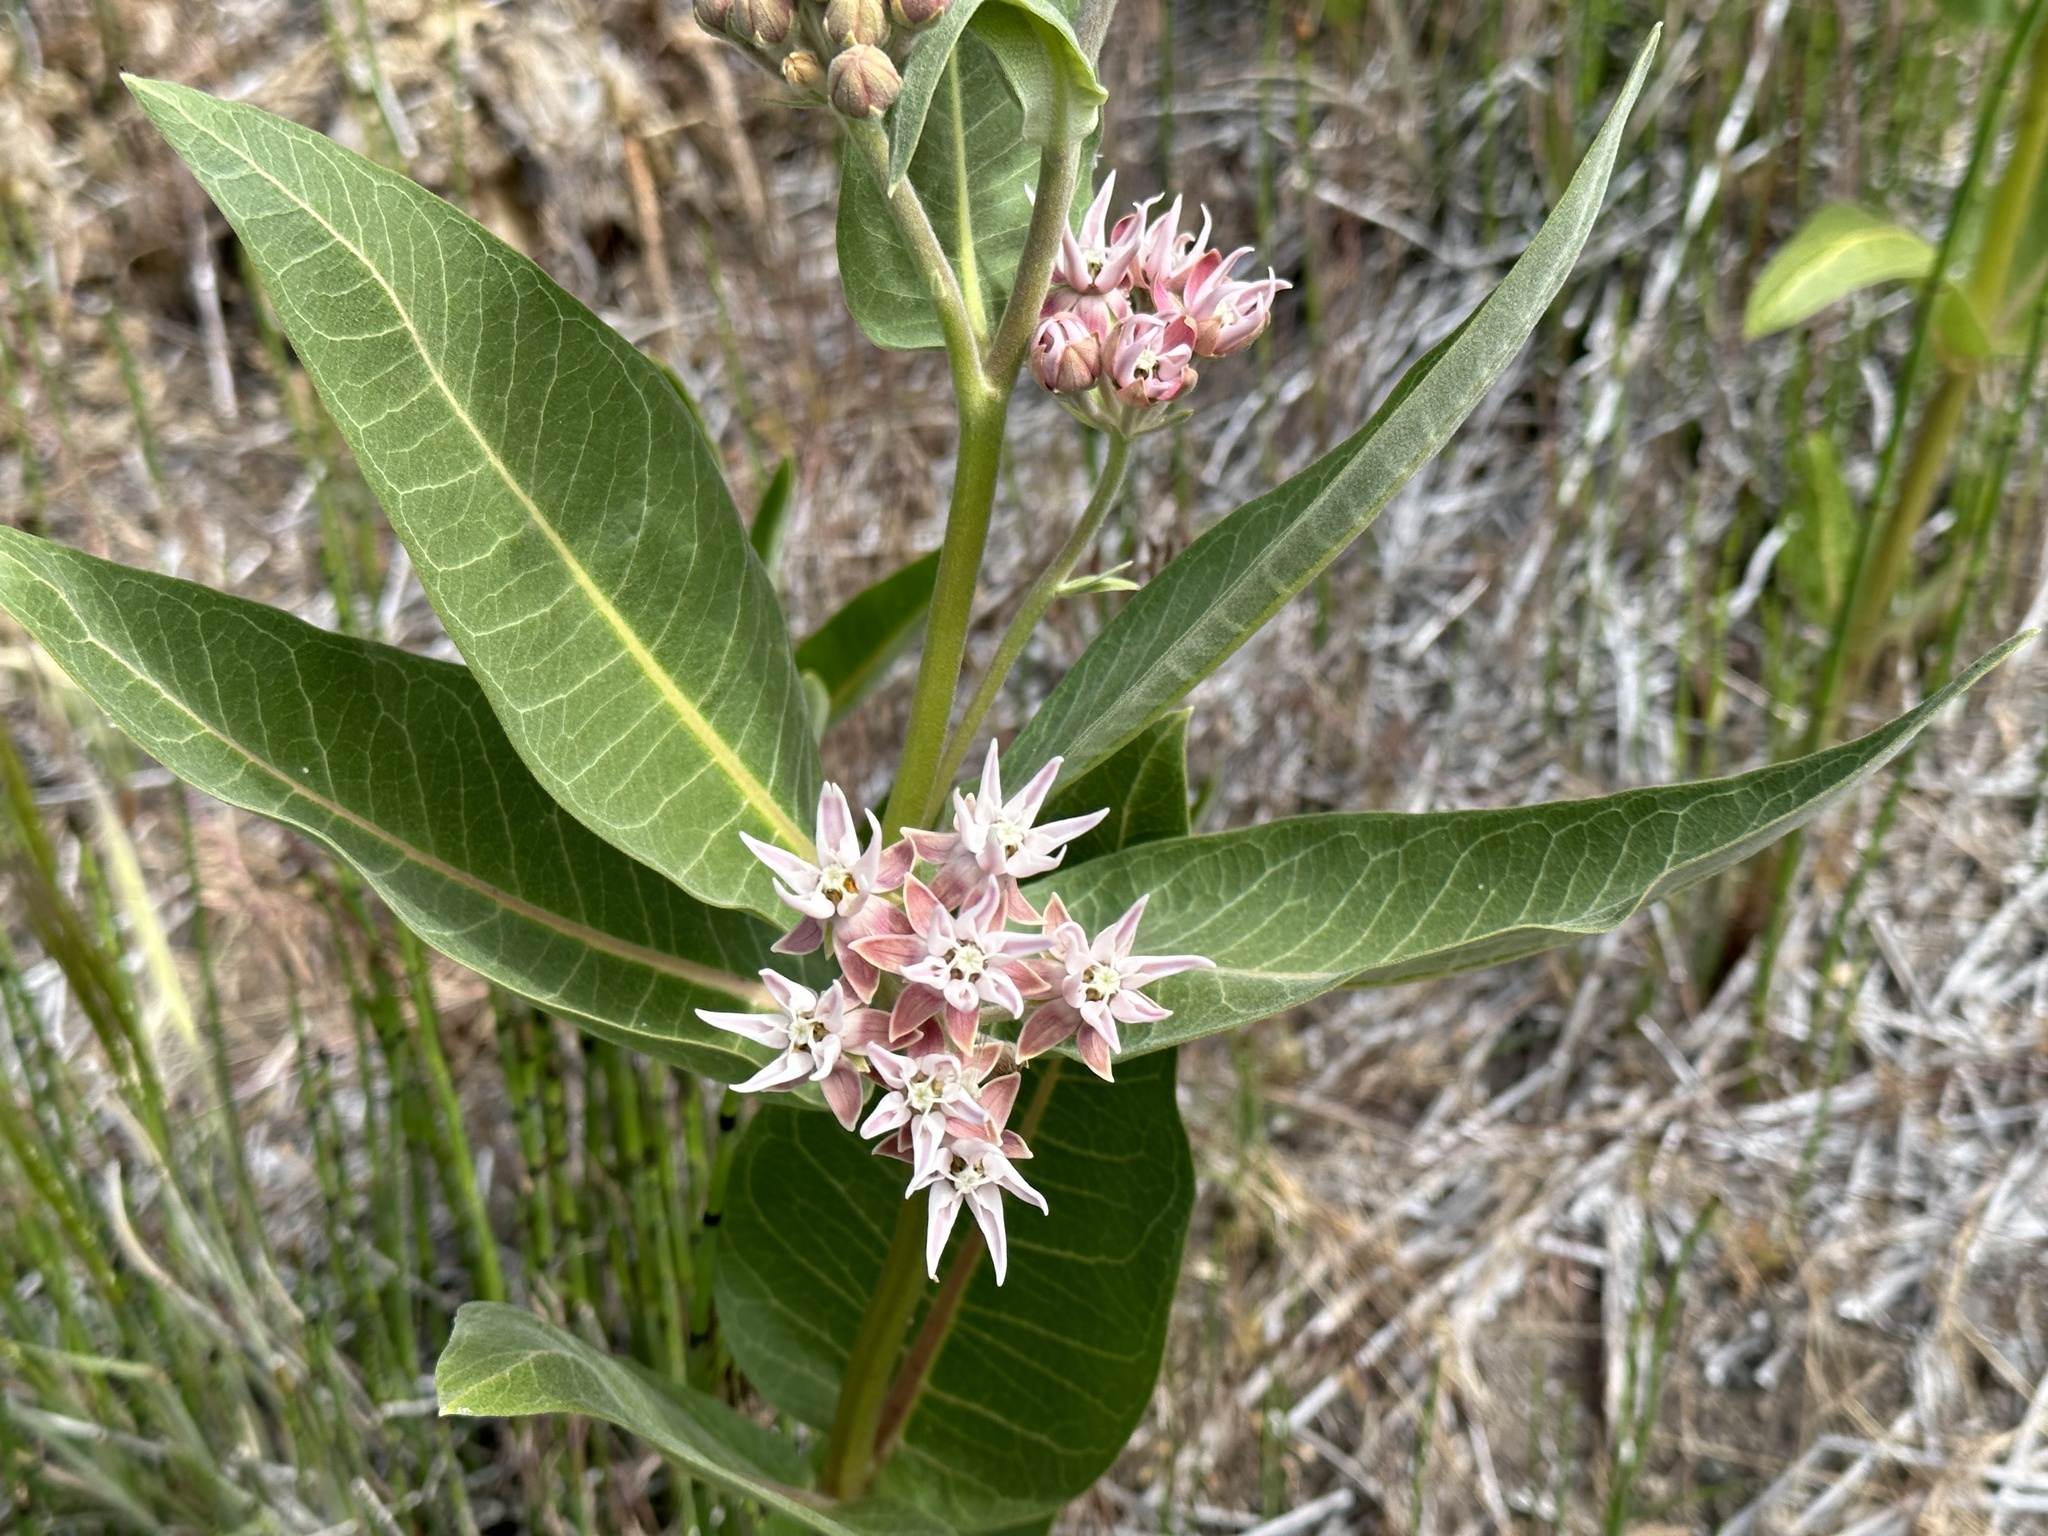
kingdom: Plantae
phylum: Tracheophyta
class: Magnoliopsida
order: Gentianales
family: Apocynaceae
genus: Asclepias
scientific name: Asclepias speciosa
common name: Showy milkweed
